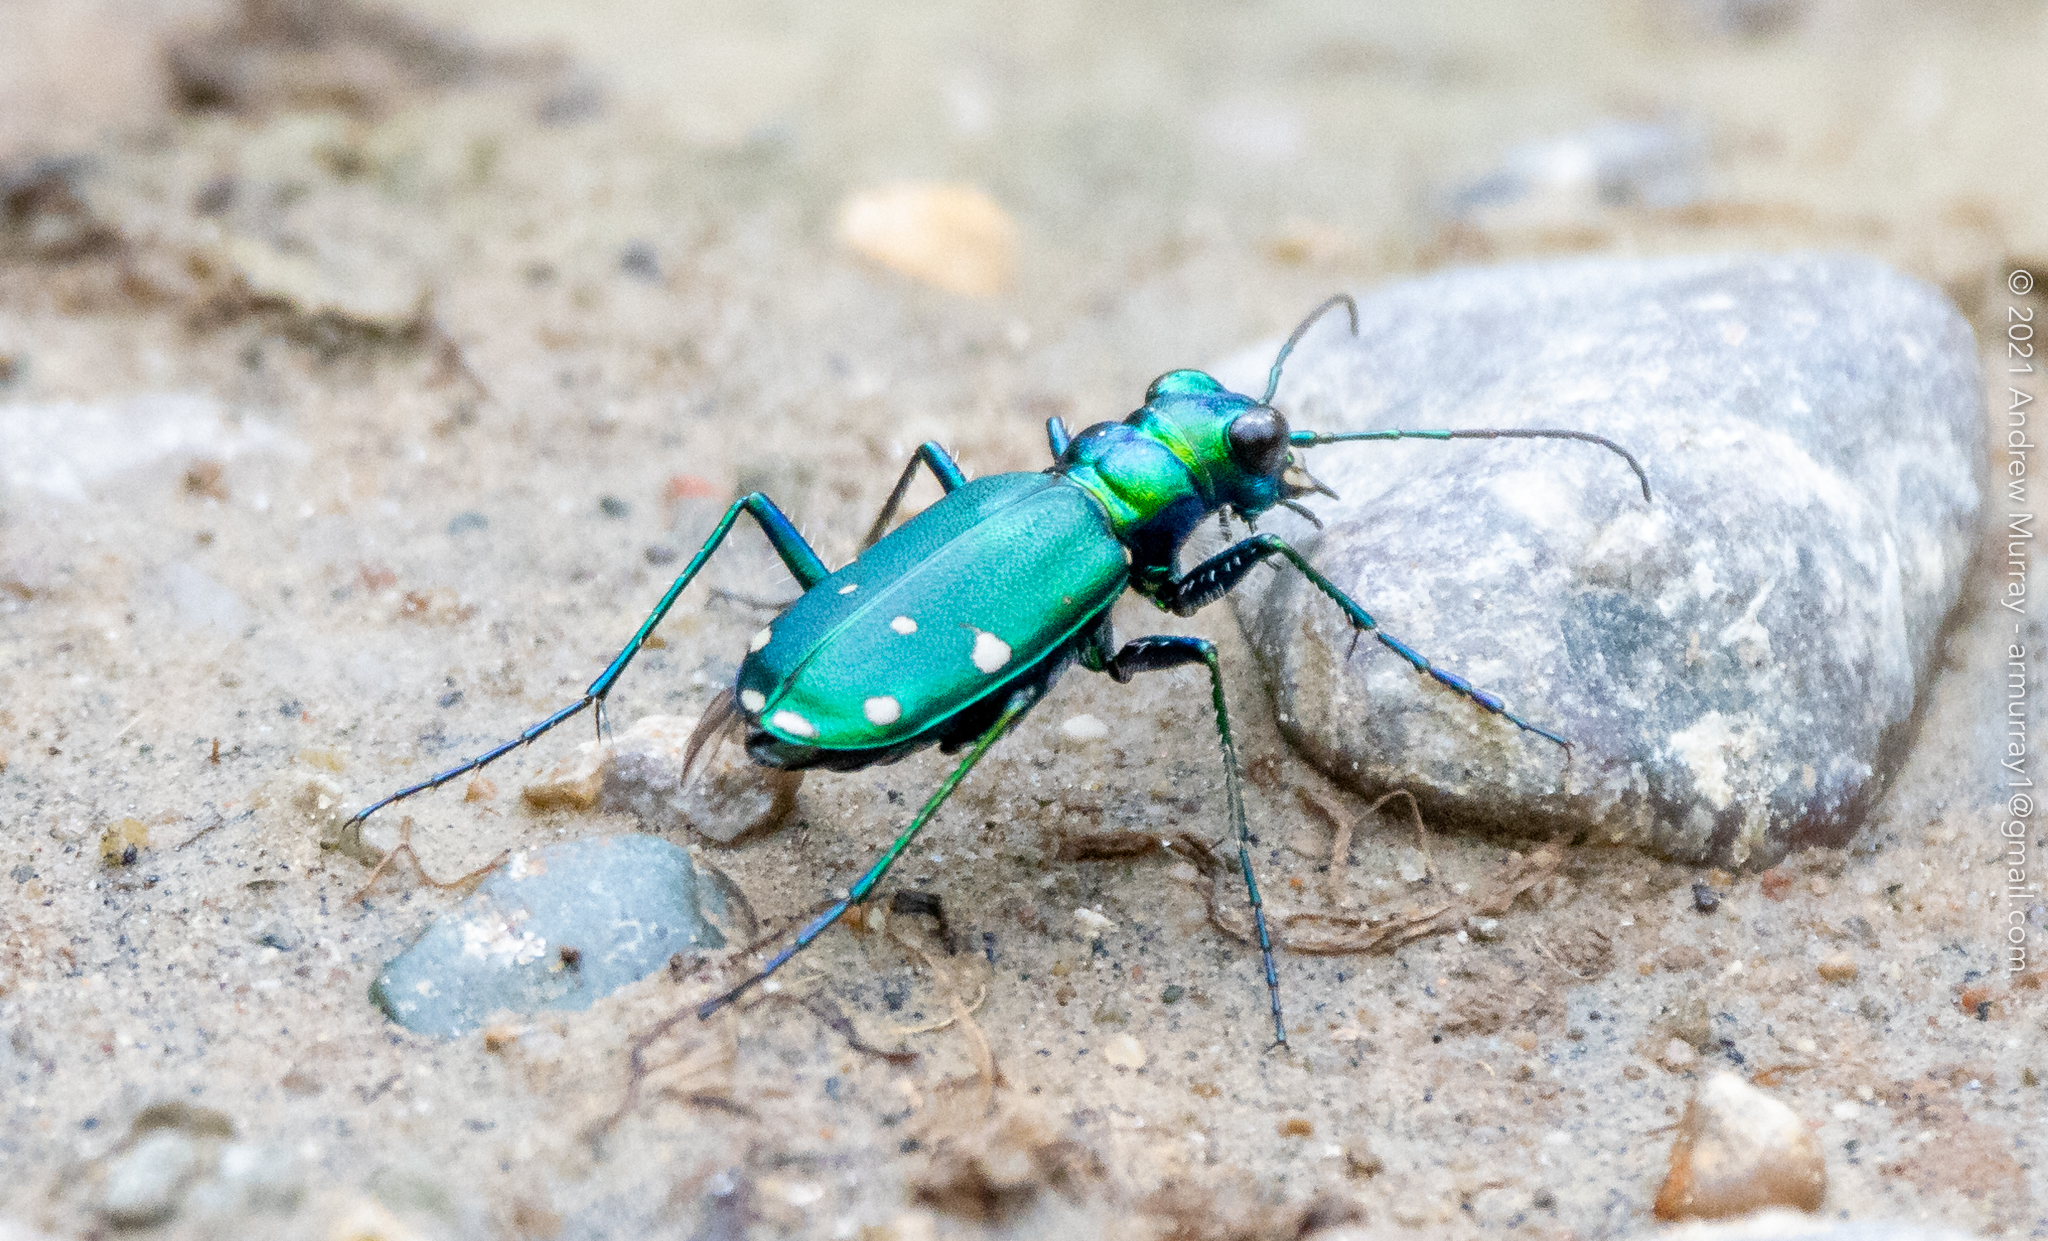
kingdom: Animalia
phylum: Arthropoda
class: Insecta
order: Coleoptera
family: Carabidae
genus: Cicindela
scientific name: Cicindela sexguttata
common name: Six-spotted tiger beetle
